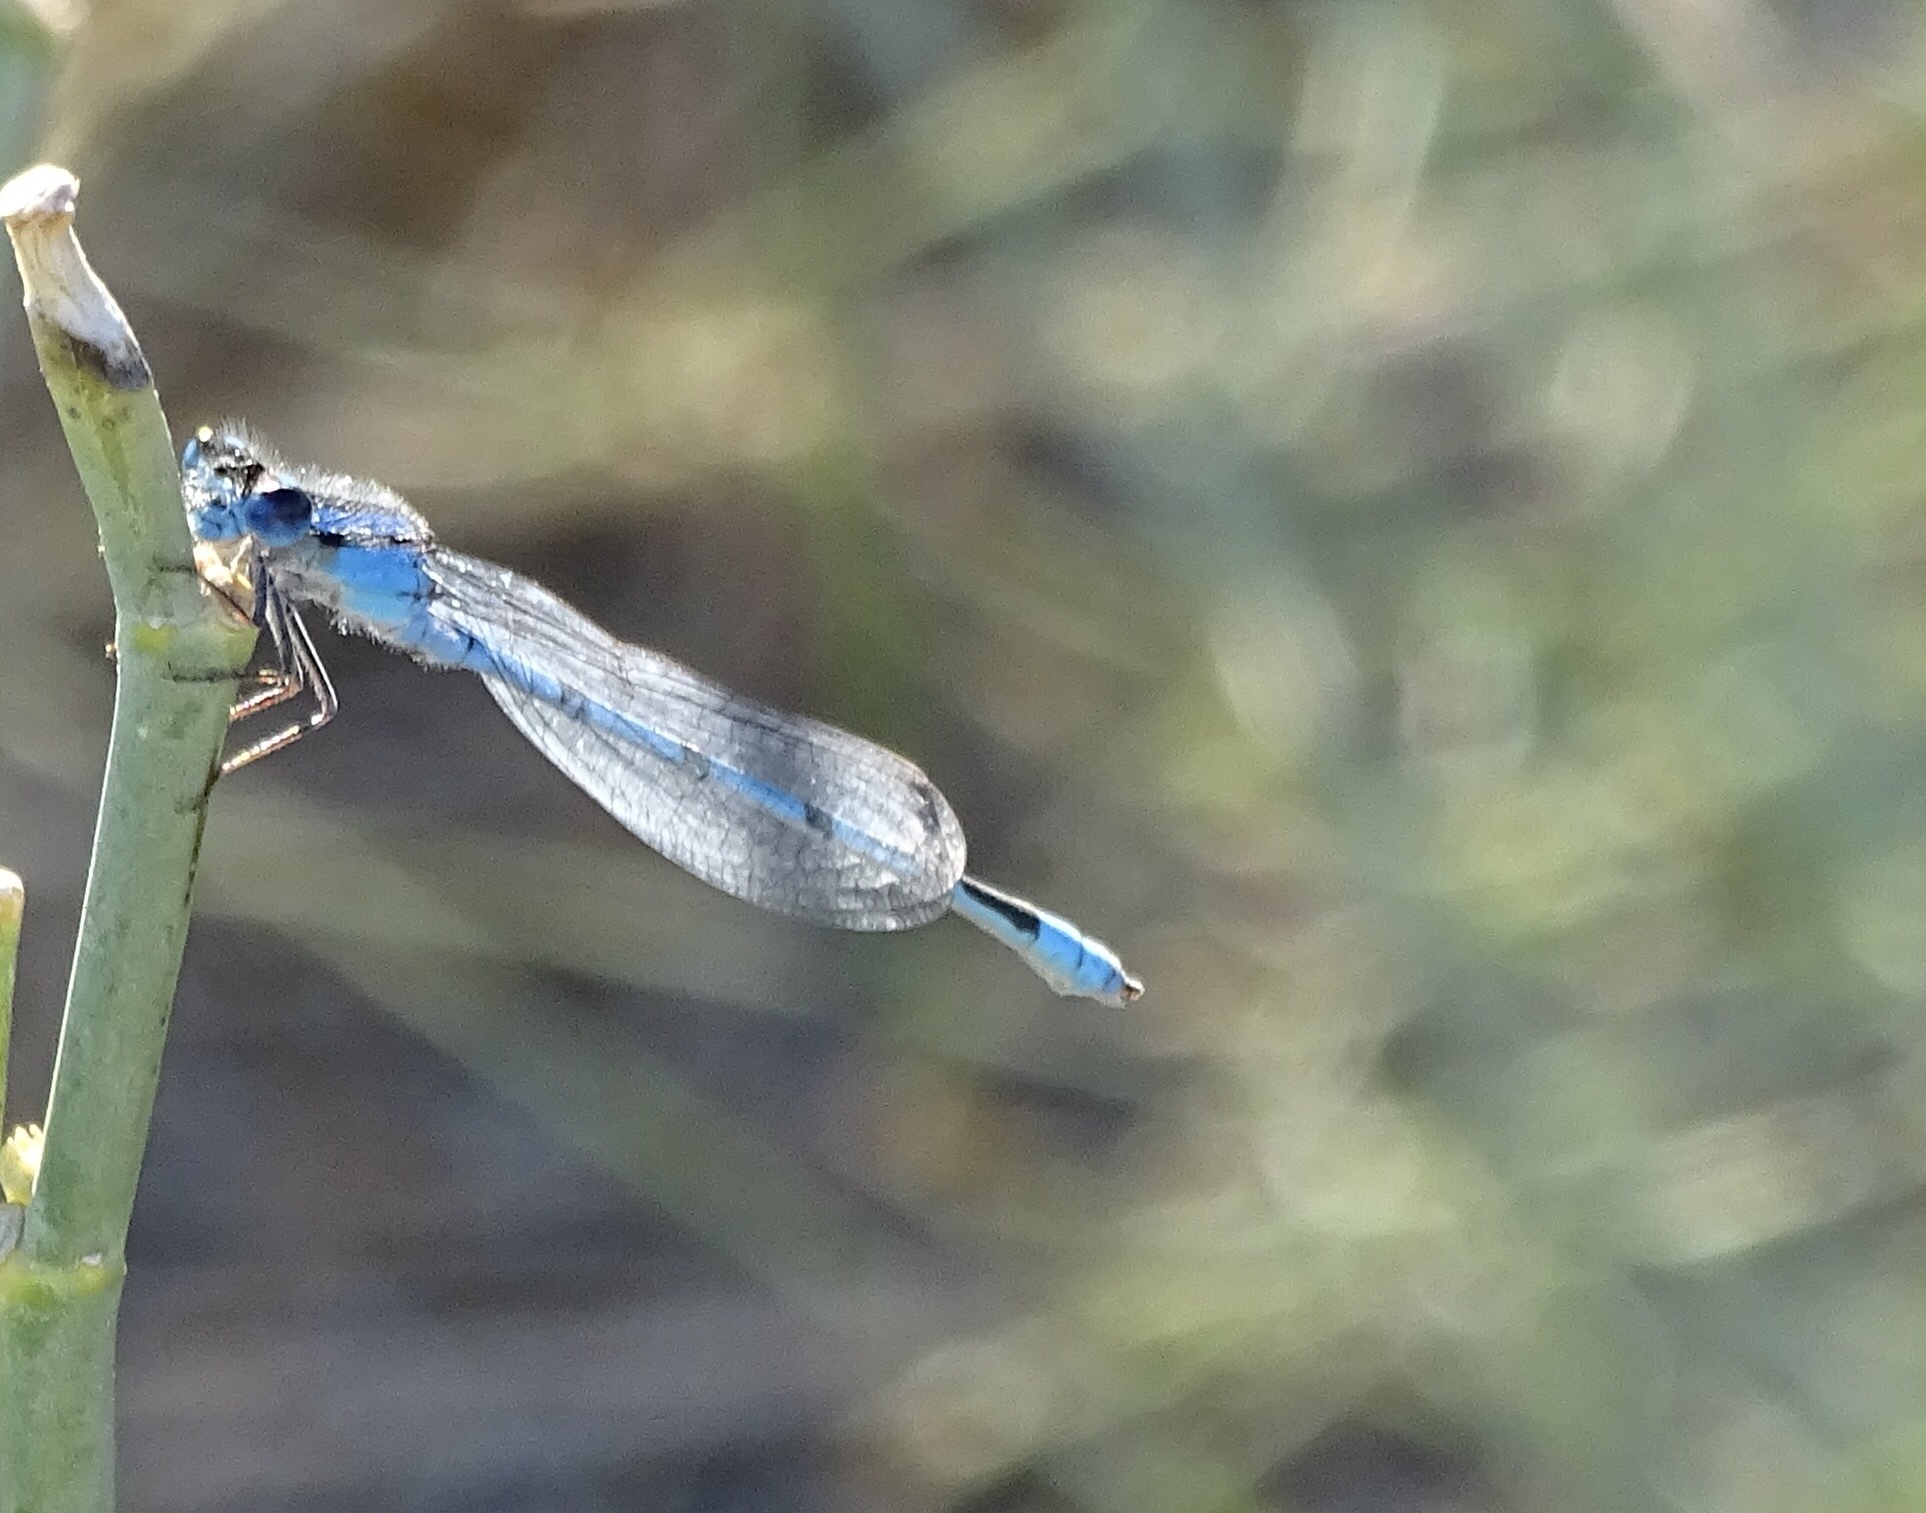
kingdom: Animalia
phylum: Arthropoda
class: Insecta
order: Odonata
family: Coenagrionidae
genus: Enallagma
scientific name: Enallagma civile
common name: Damselfly
